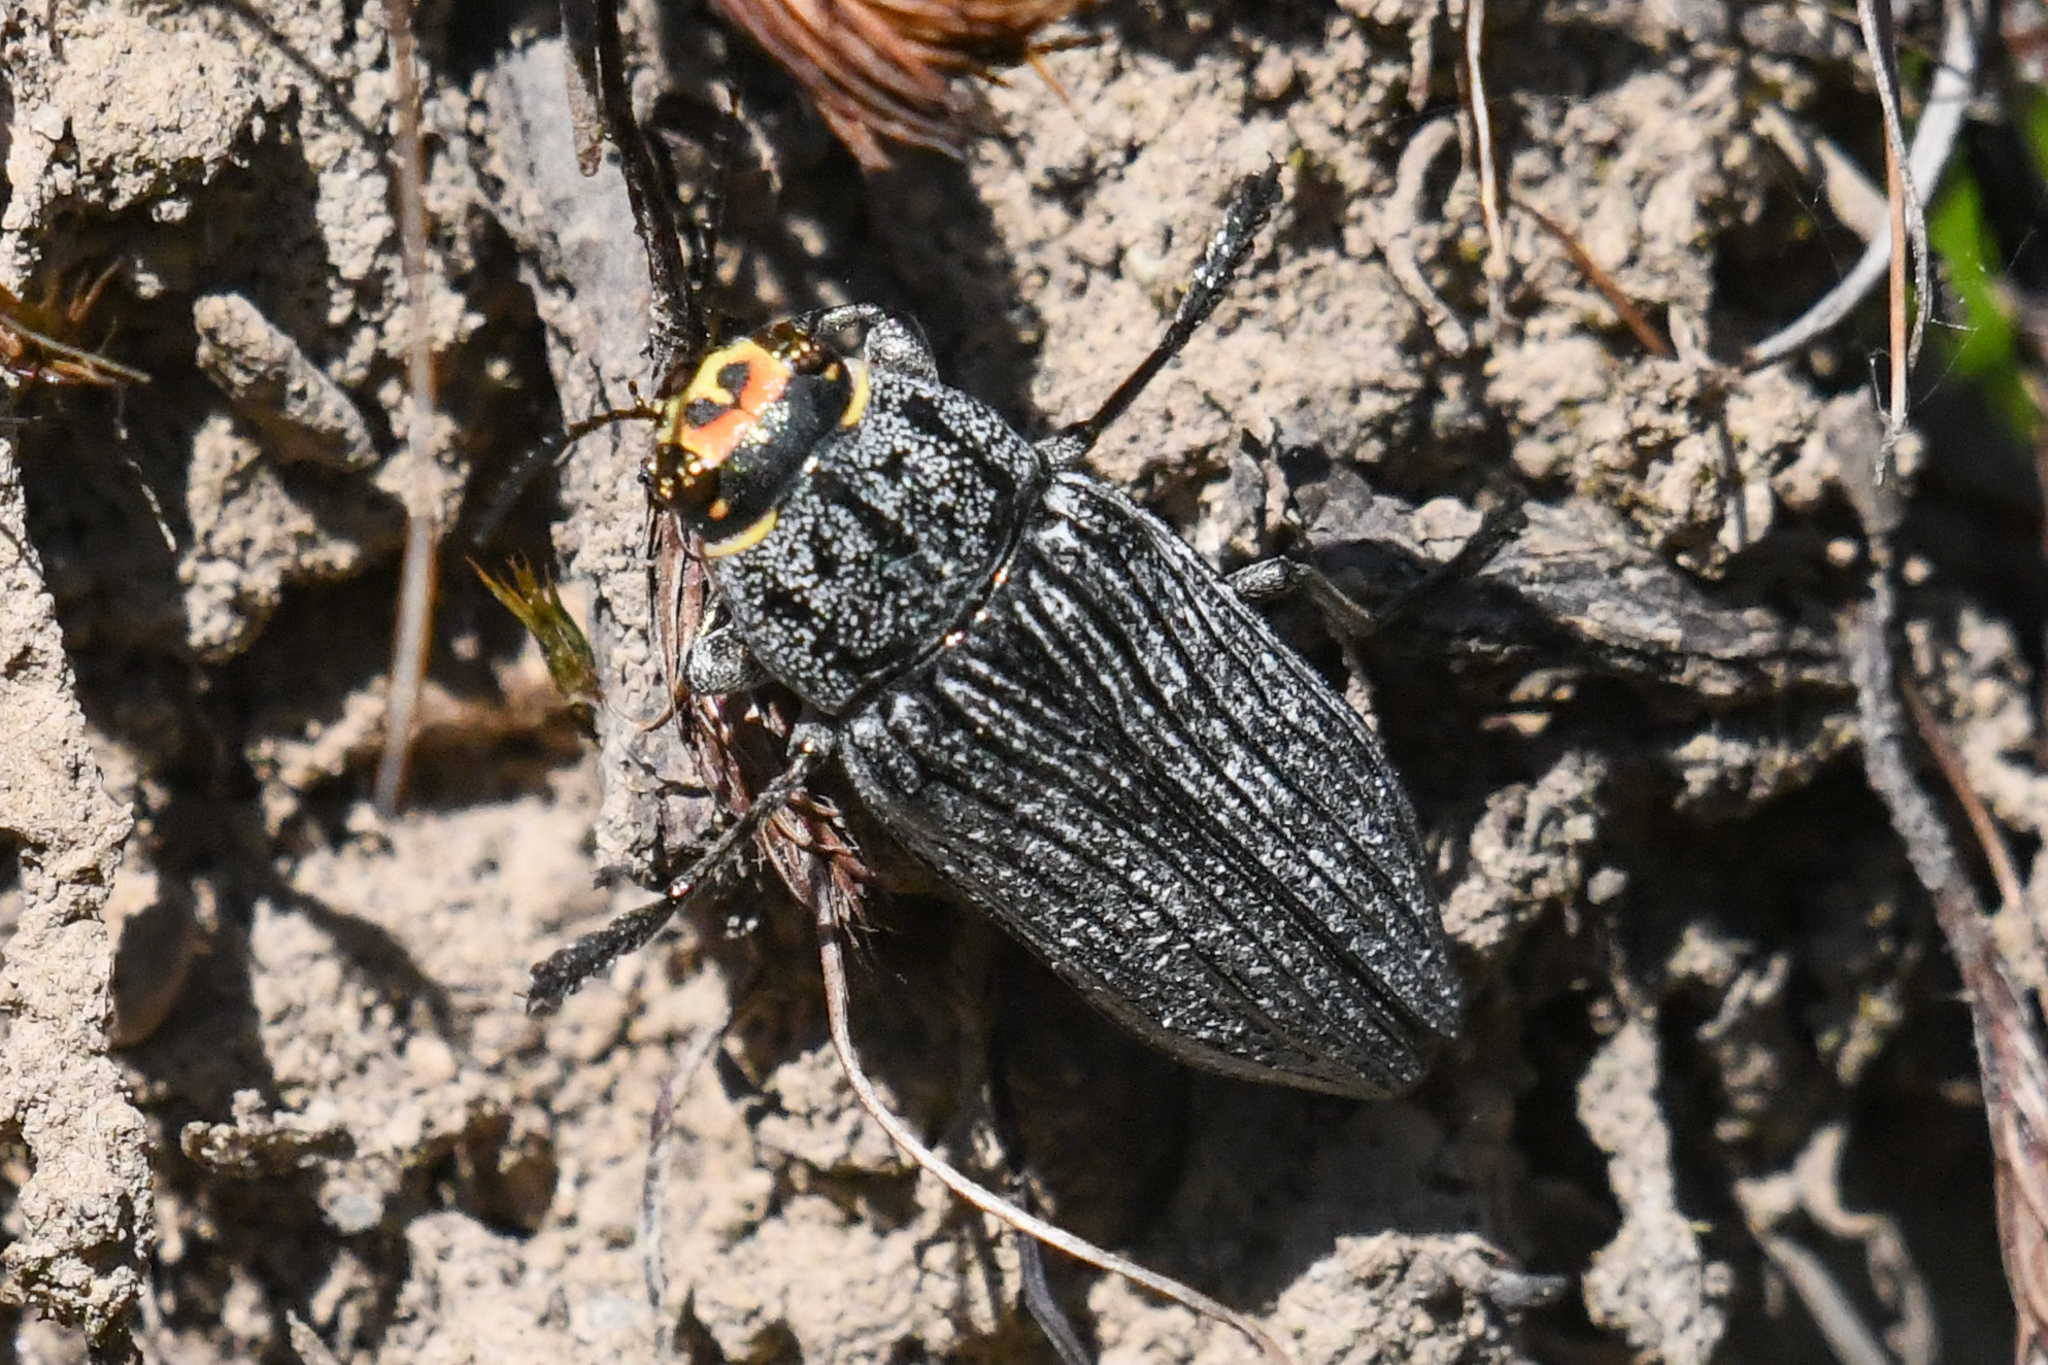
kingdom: Animalia
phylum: Arthropoda
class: Insecta
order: Coleoptera
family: Buprestidae
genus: Buprestis
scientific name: Buprestis lyrata
